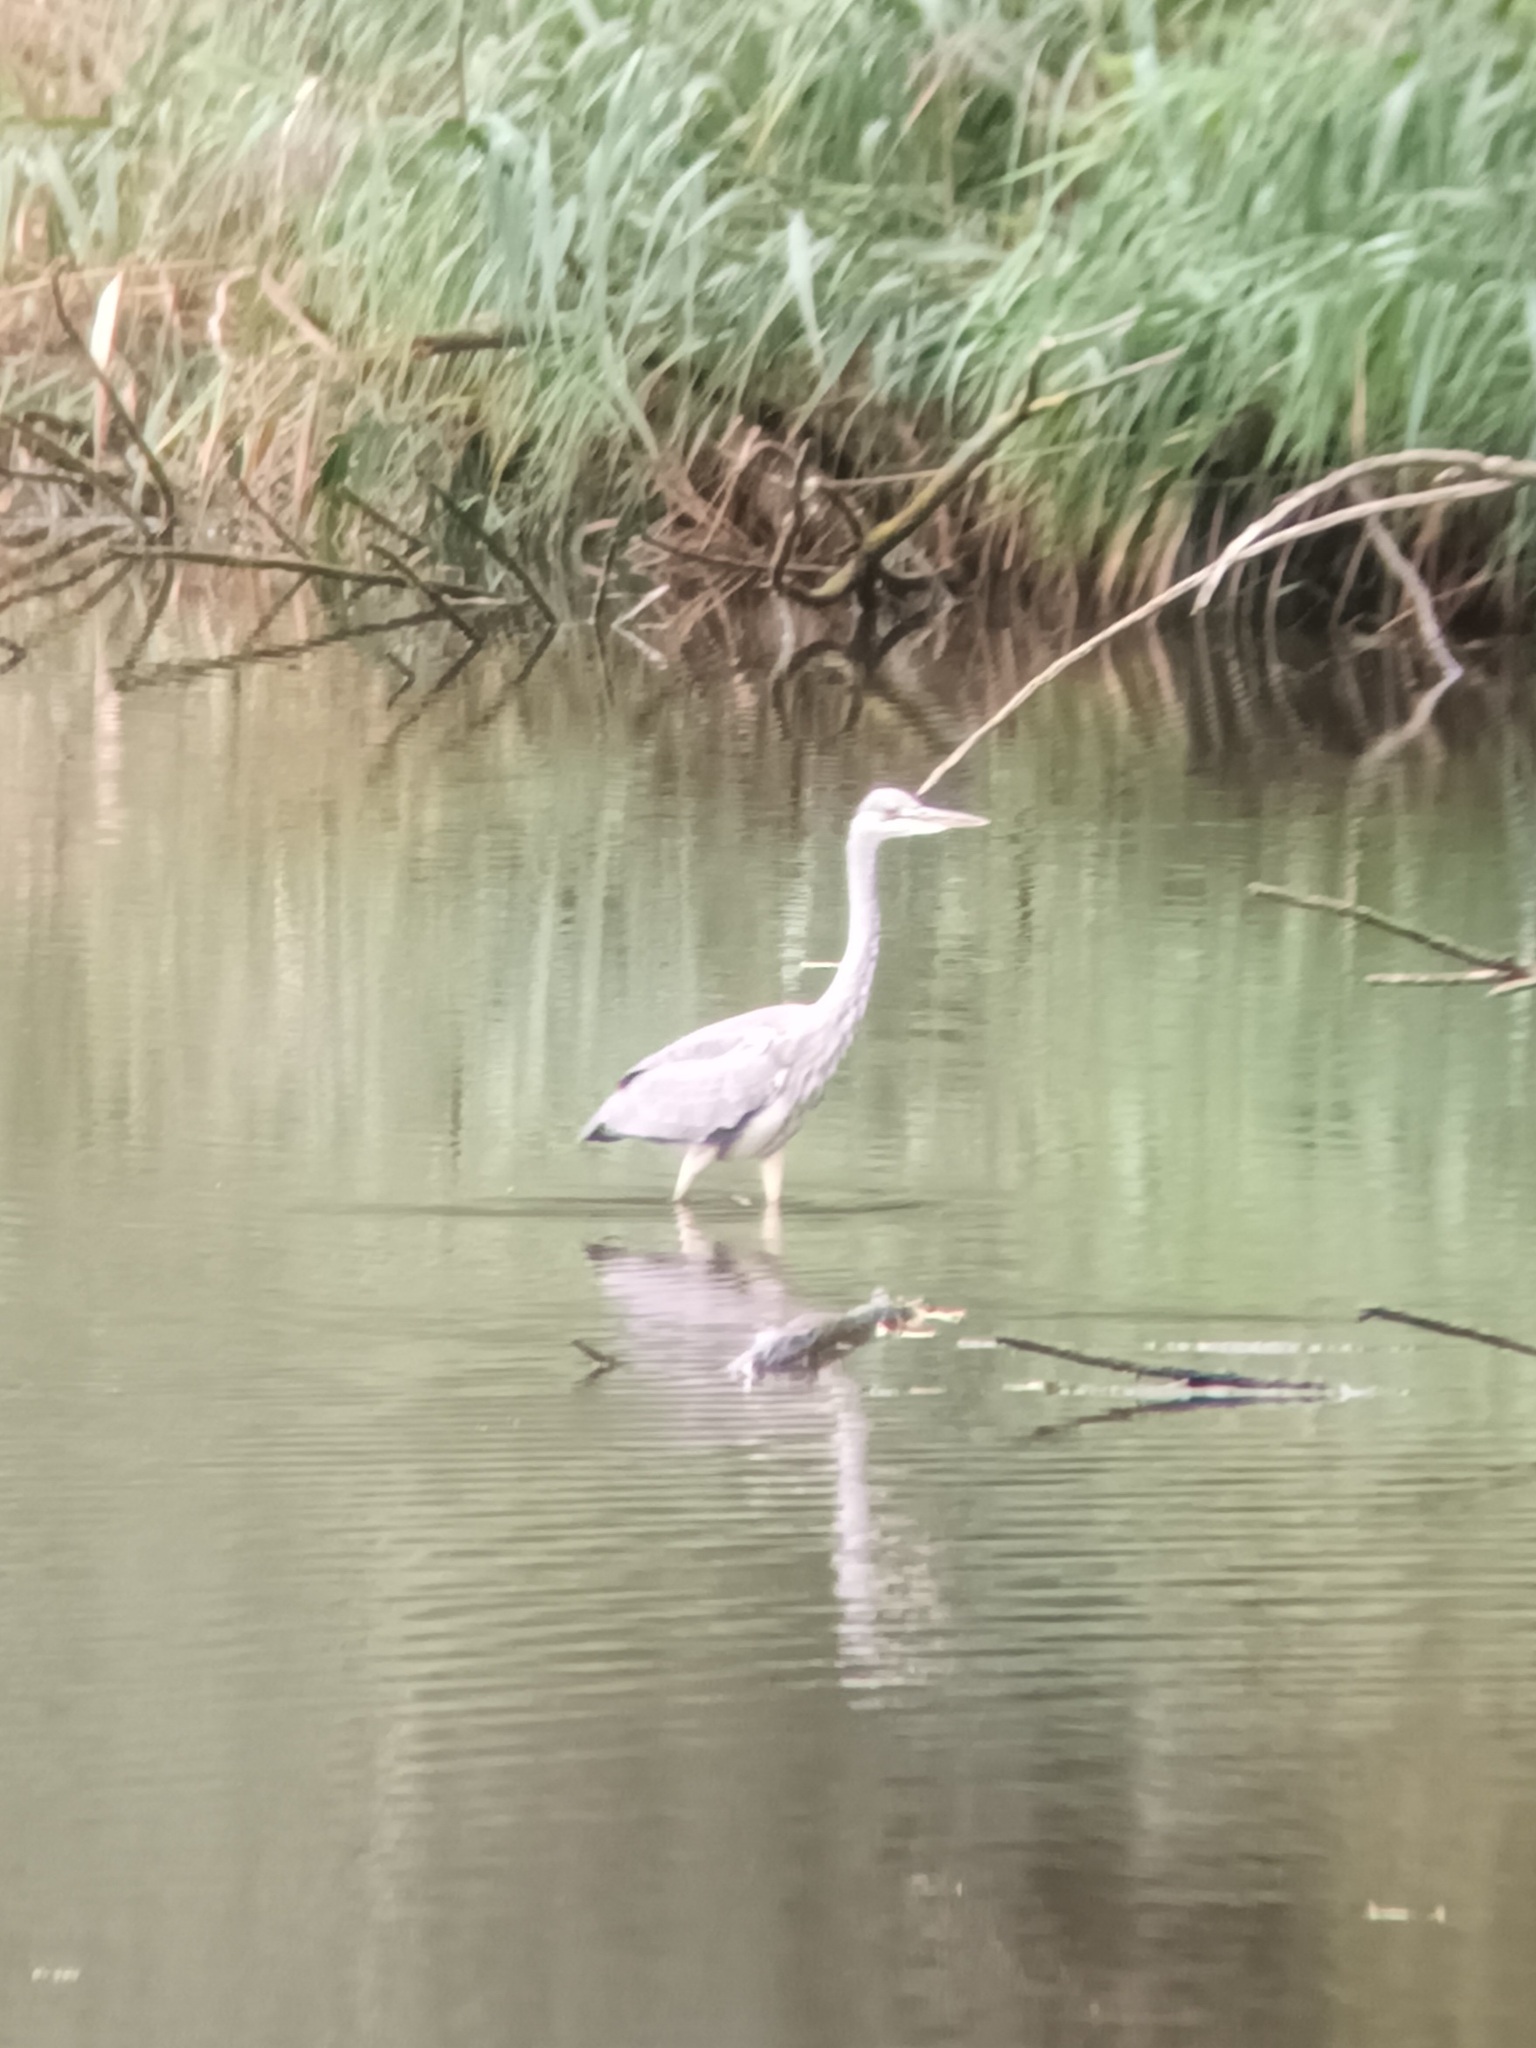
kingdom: Animalia
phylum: Chordata
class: Aves
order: Pelecaniformes
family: Ardeidae
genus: Ardea
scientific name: Ardea cinerea
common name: Grey heron
